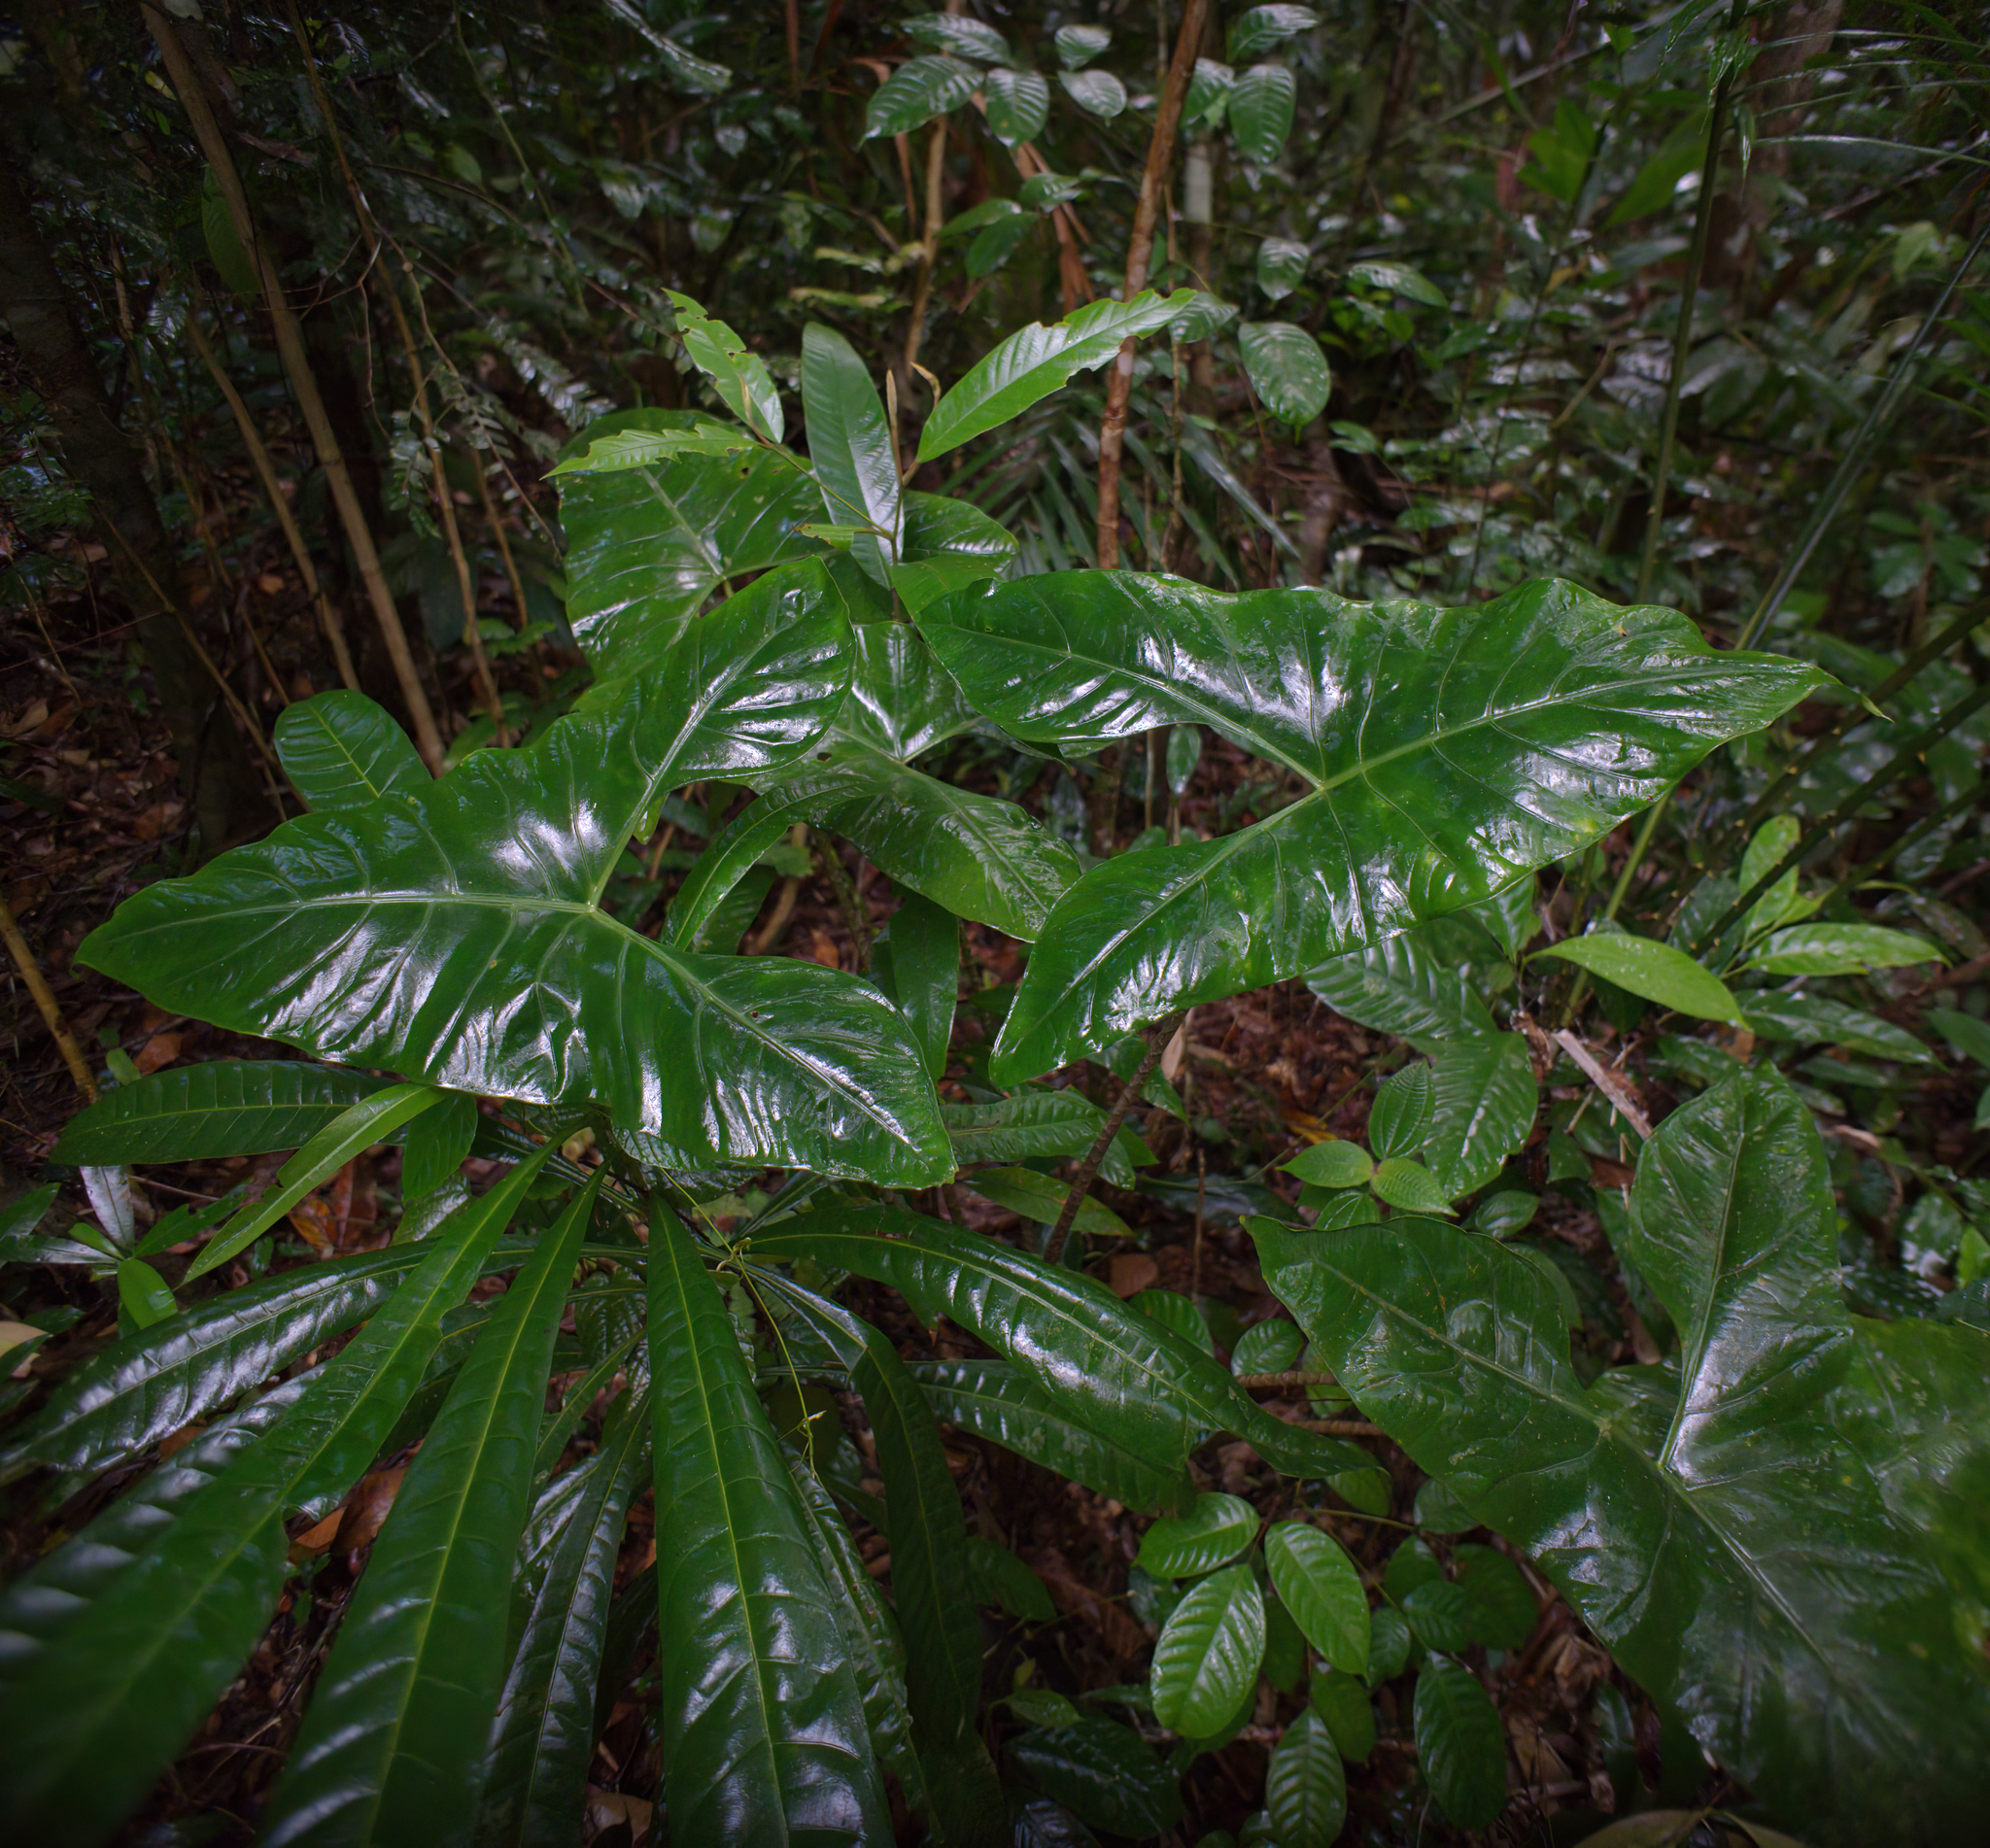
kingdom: Plantae
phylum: Tracheophyta
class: Liliopsida
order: Alismatales
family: Araceae
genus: Alocasia
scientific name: Alocasia longiloba
